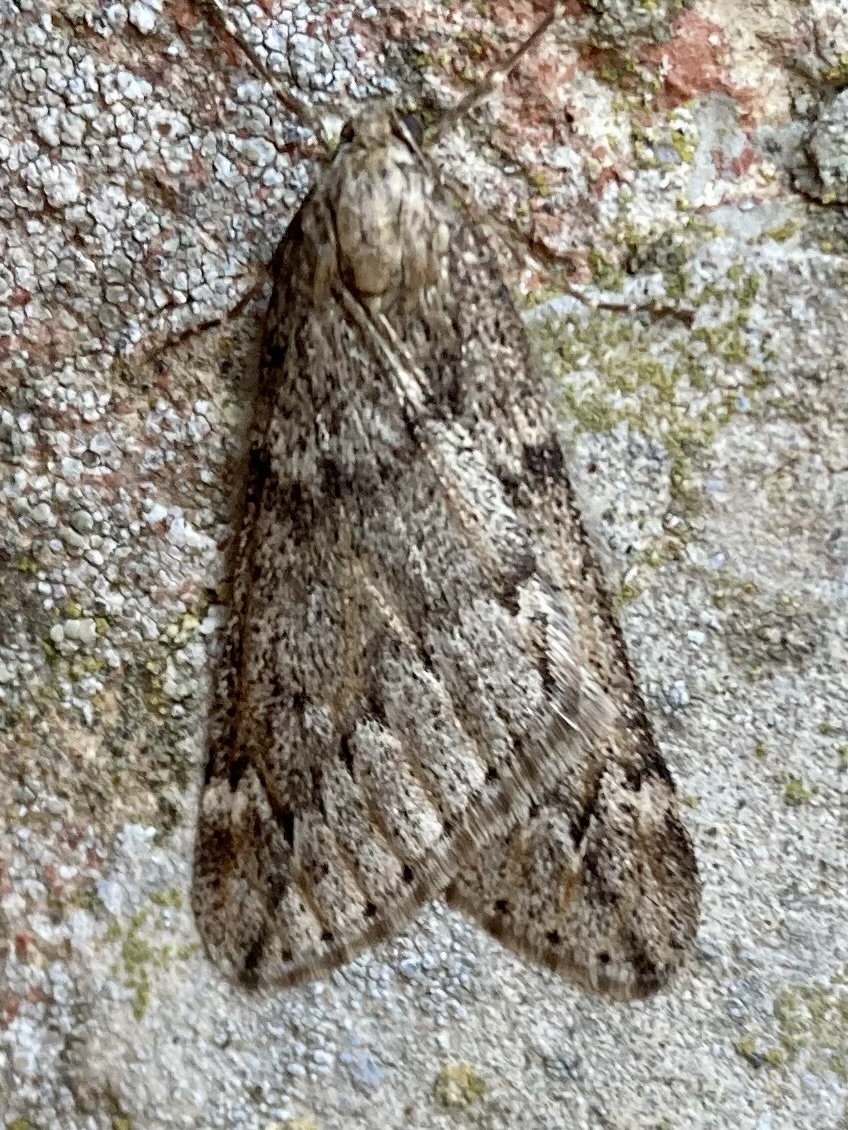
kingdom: Animalia
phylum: Arthropoda
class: Insecta
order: Lepidoptera
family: Geometridae
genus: Alsophila
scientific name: Alsophila aescularia
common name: March moth
